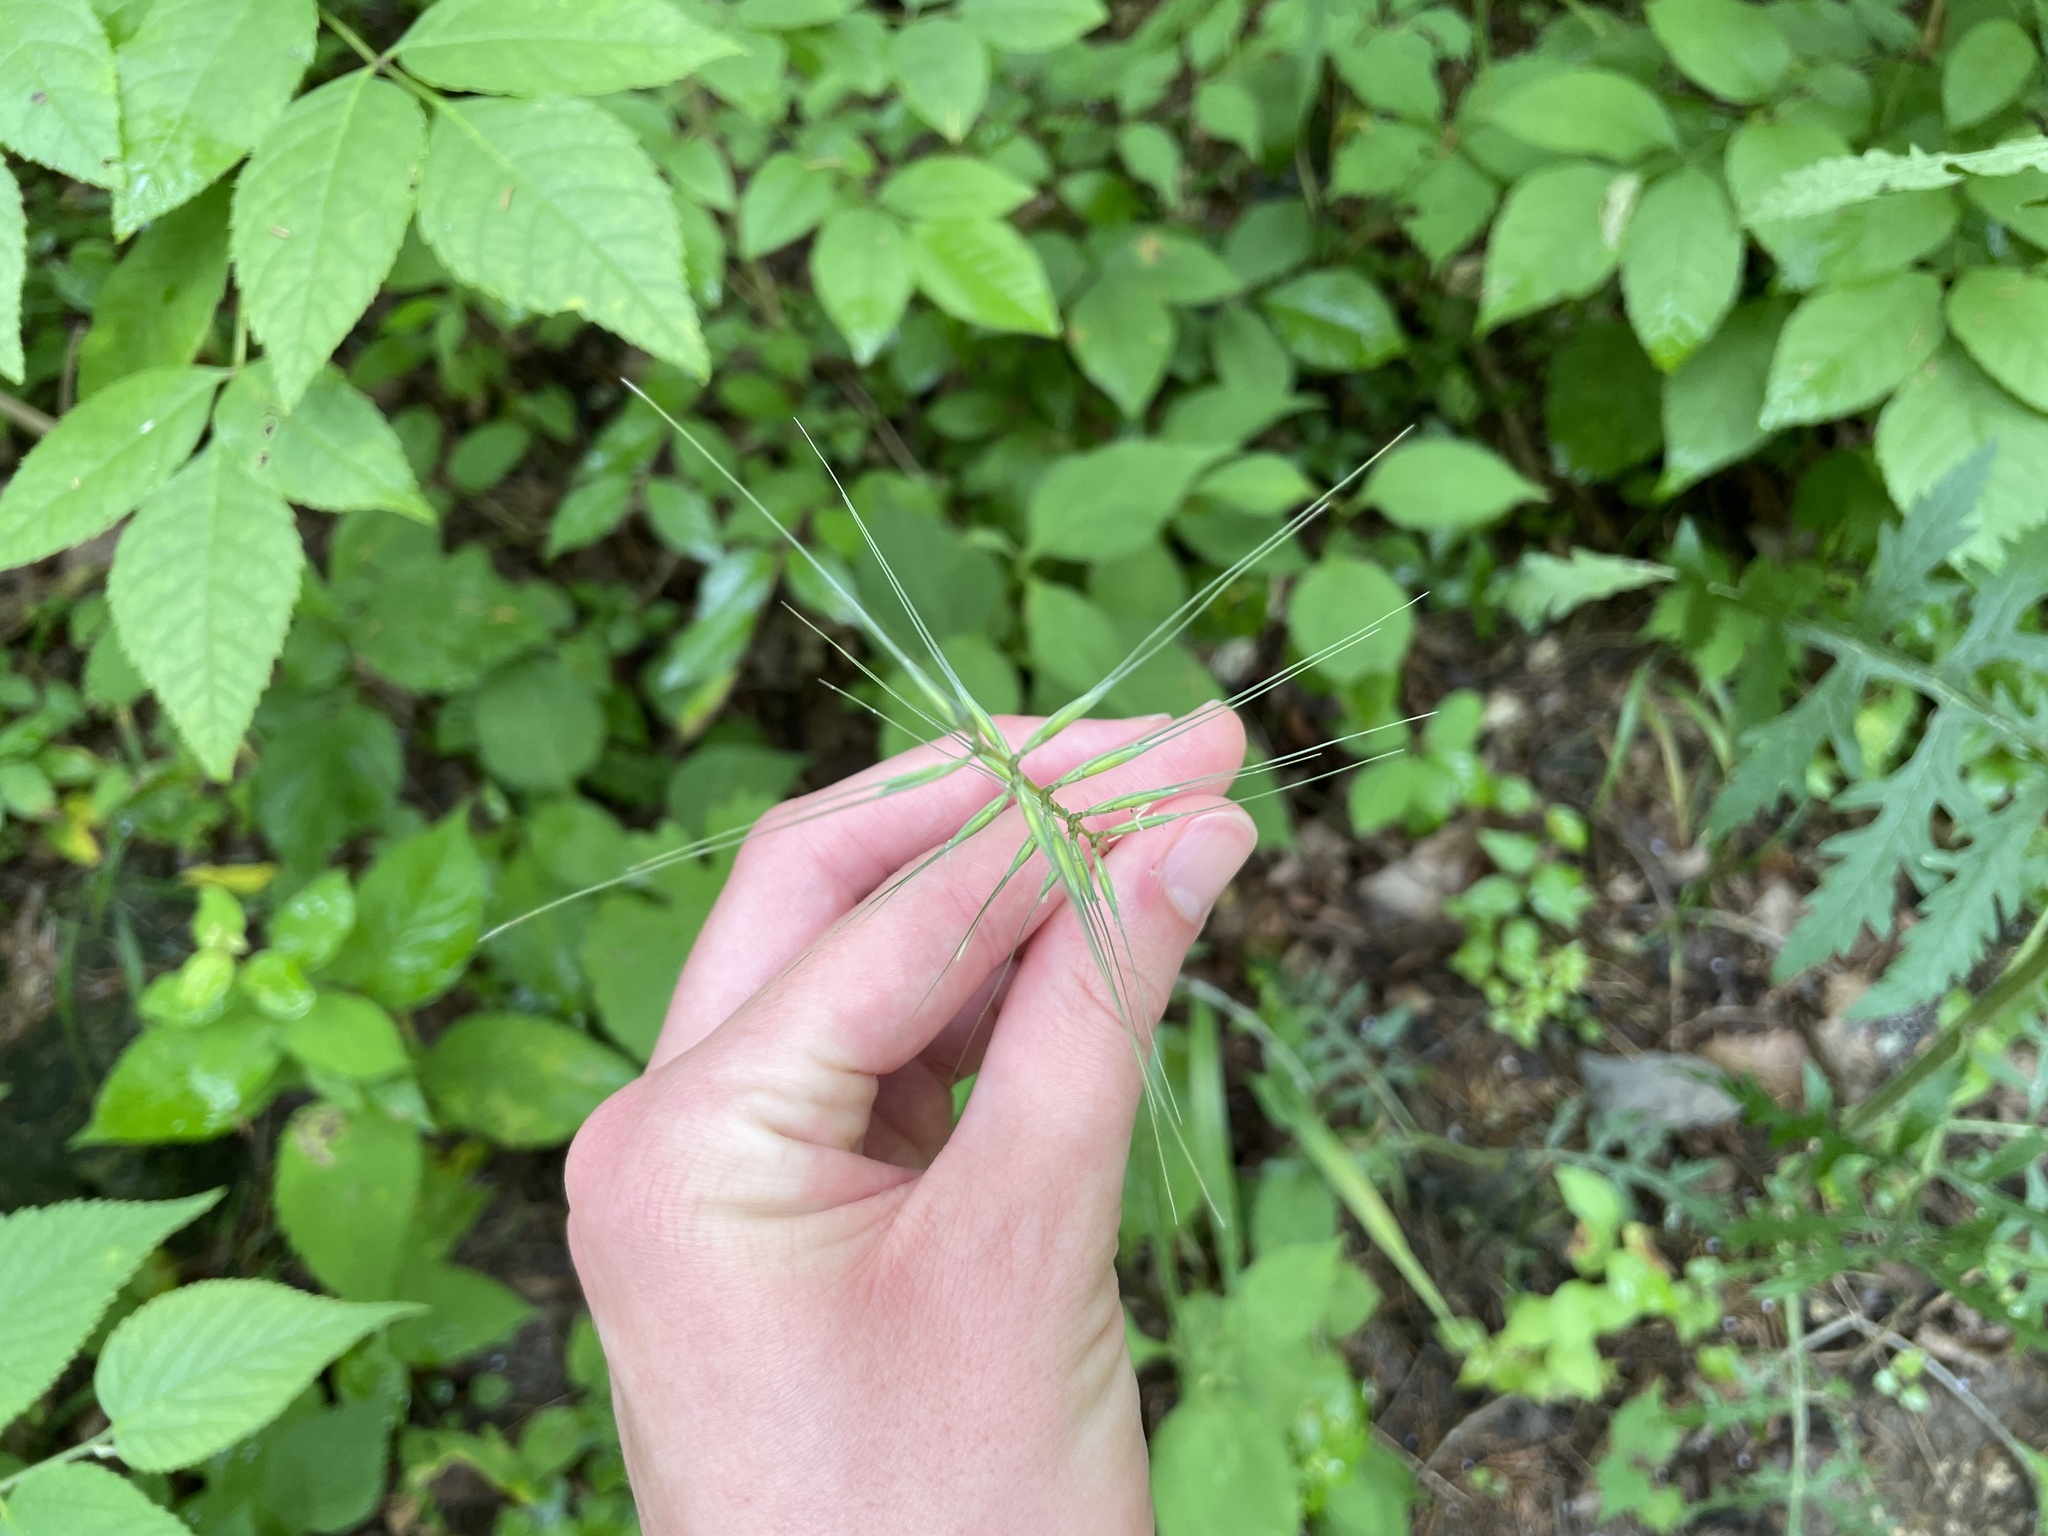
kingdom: Plantae
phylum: Tracheophyta
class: Liliopsida
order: Poales
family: Poaceae
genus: Elymus
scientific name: Elymus hystrix
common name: Bottlebrush grass
